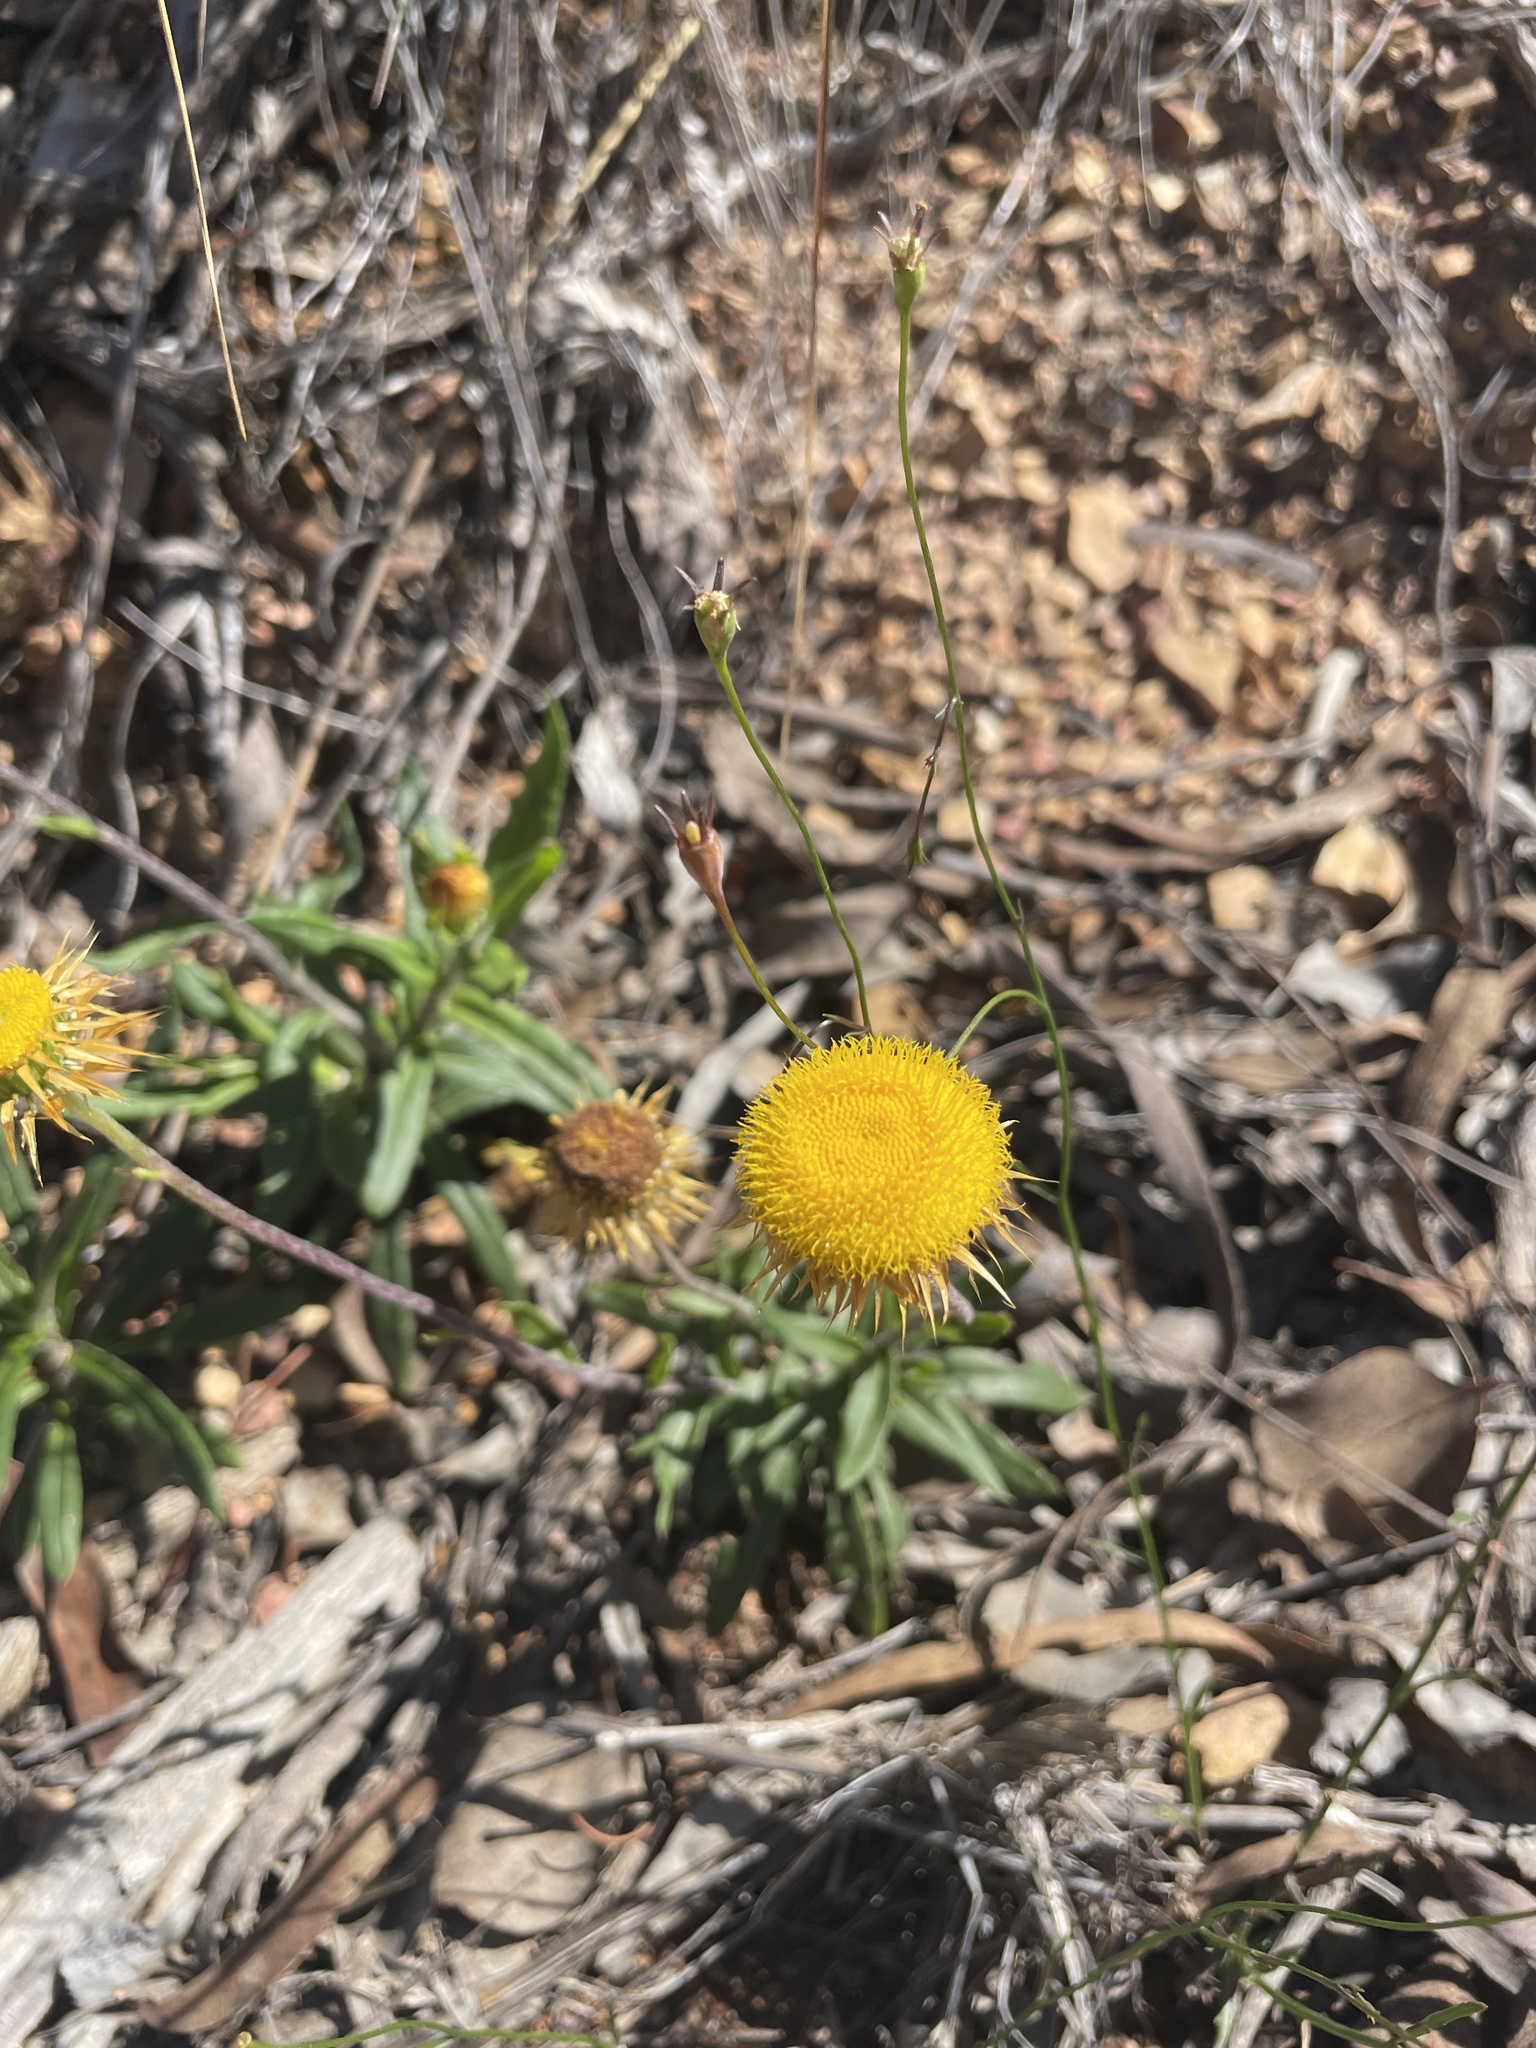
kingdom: Plantae
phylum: Tracheophyta
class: Magnoliopsida
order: Asterales
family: Asteraceae
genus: Coronidium
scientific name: Coronidium oxylepis
